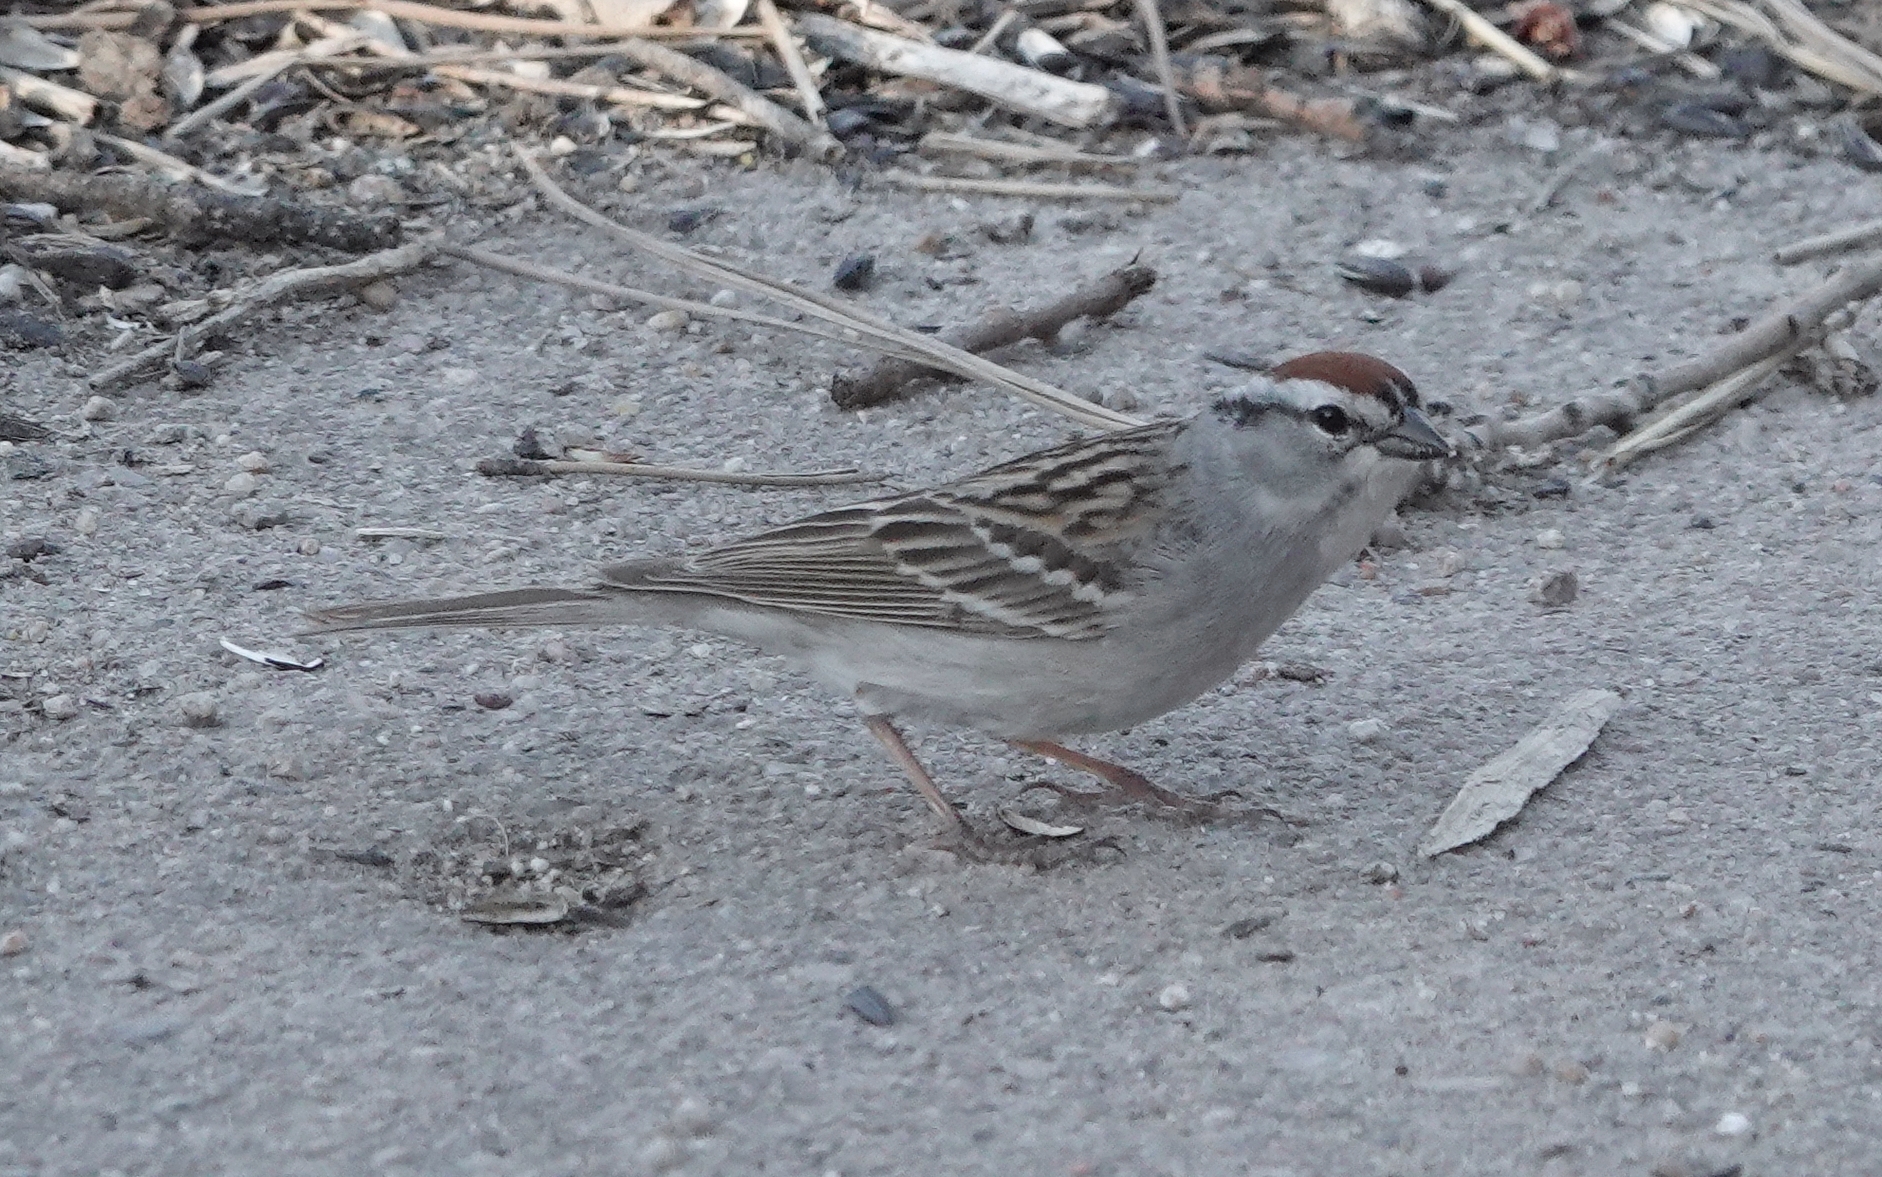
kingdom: Animalia
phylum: Chordata
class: Aves
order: Passeriformes
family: Passerellidae
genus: Spizella
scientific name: Spizella passerina
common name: Chipping sparrow
